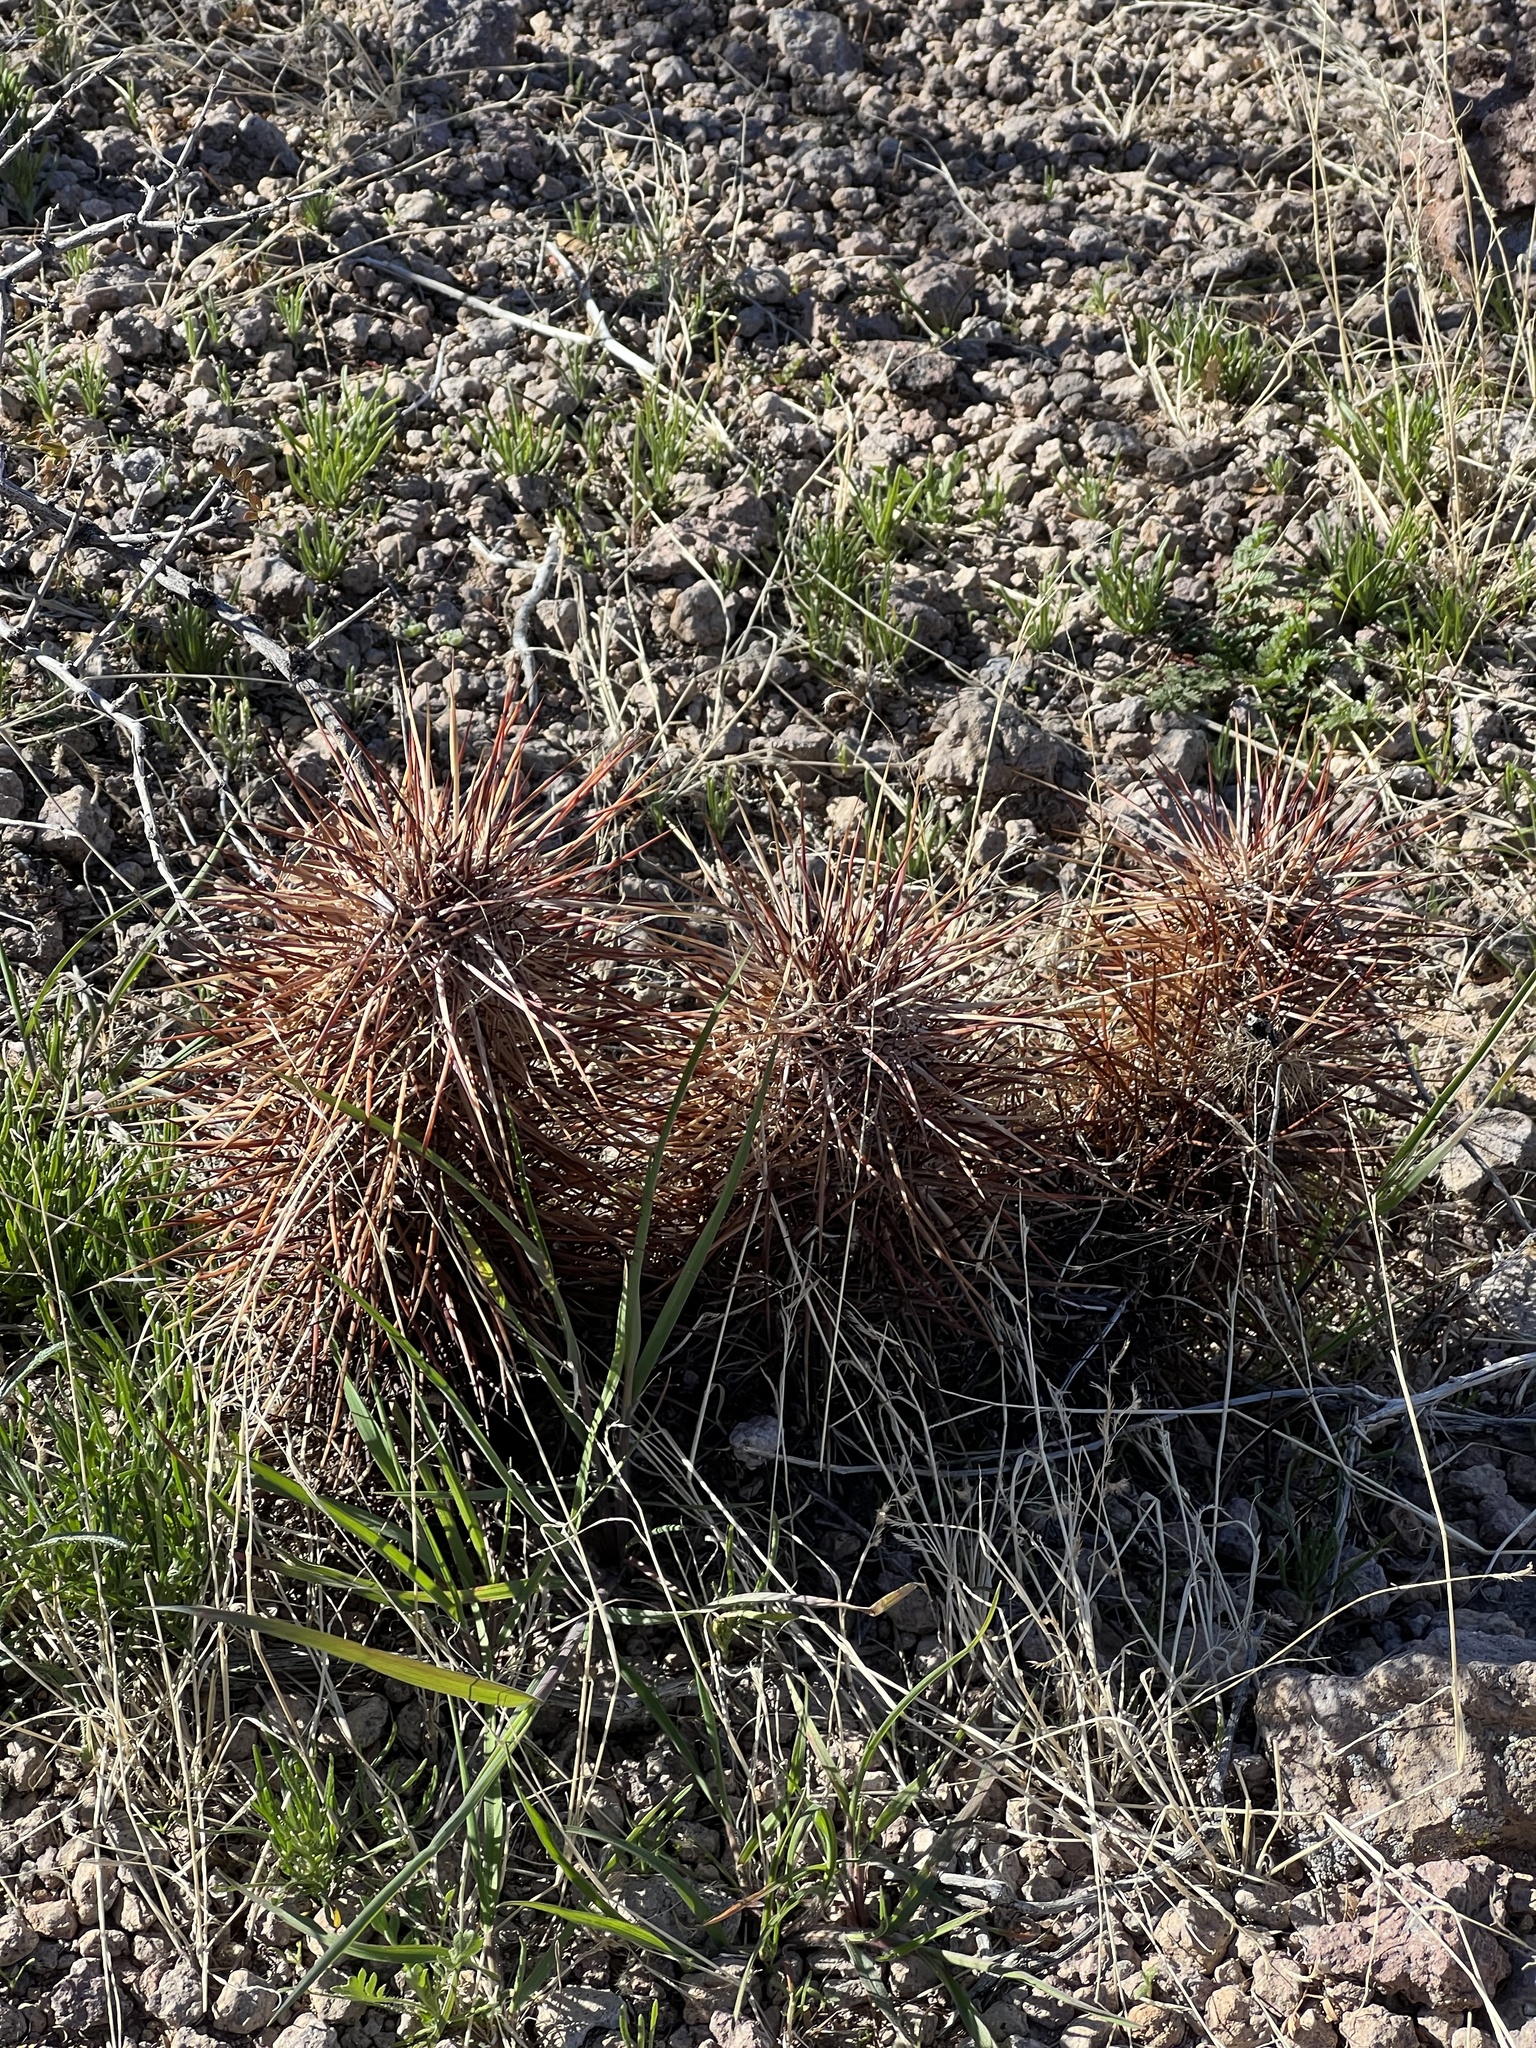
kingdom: Plantae
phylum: Tracheophyta
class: Magnoliopsida
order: Caryophyllales
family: Cactaceae
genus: Echinocereus
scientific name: Echinocereus engelmannii
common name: Engelmann's hedgehog cactus
